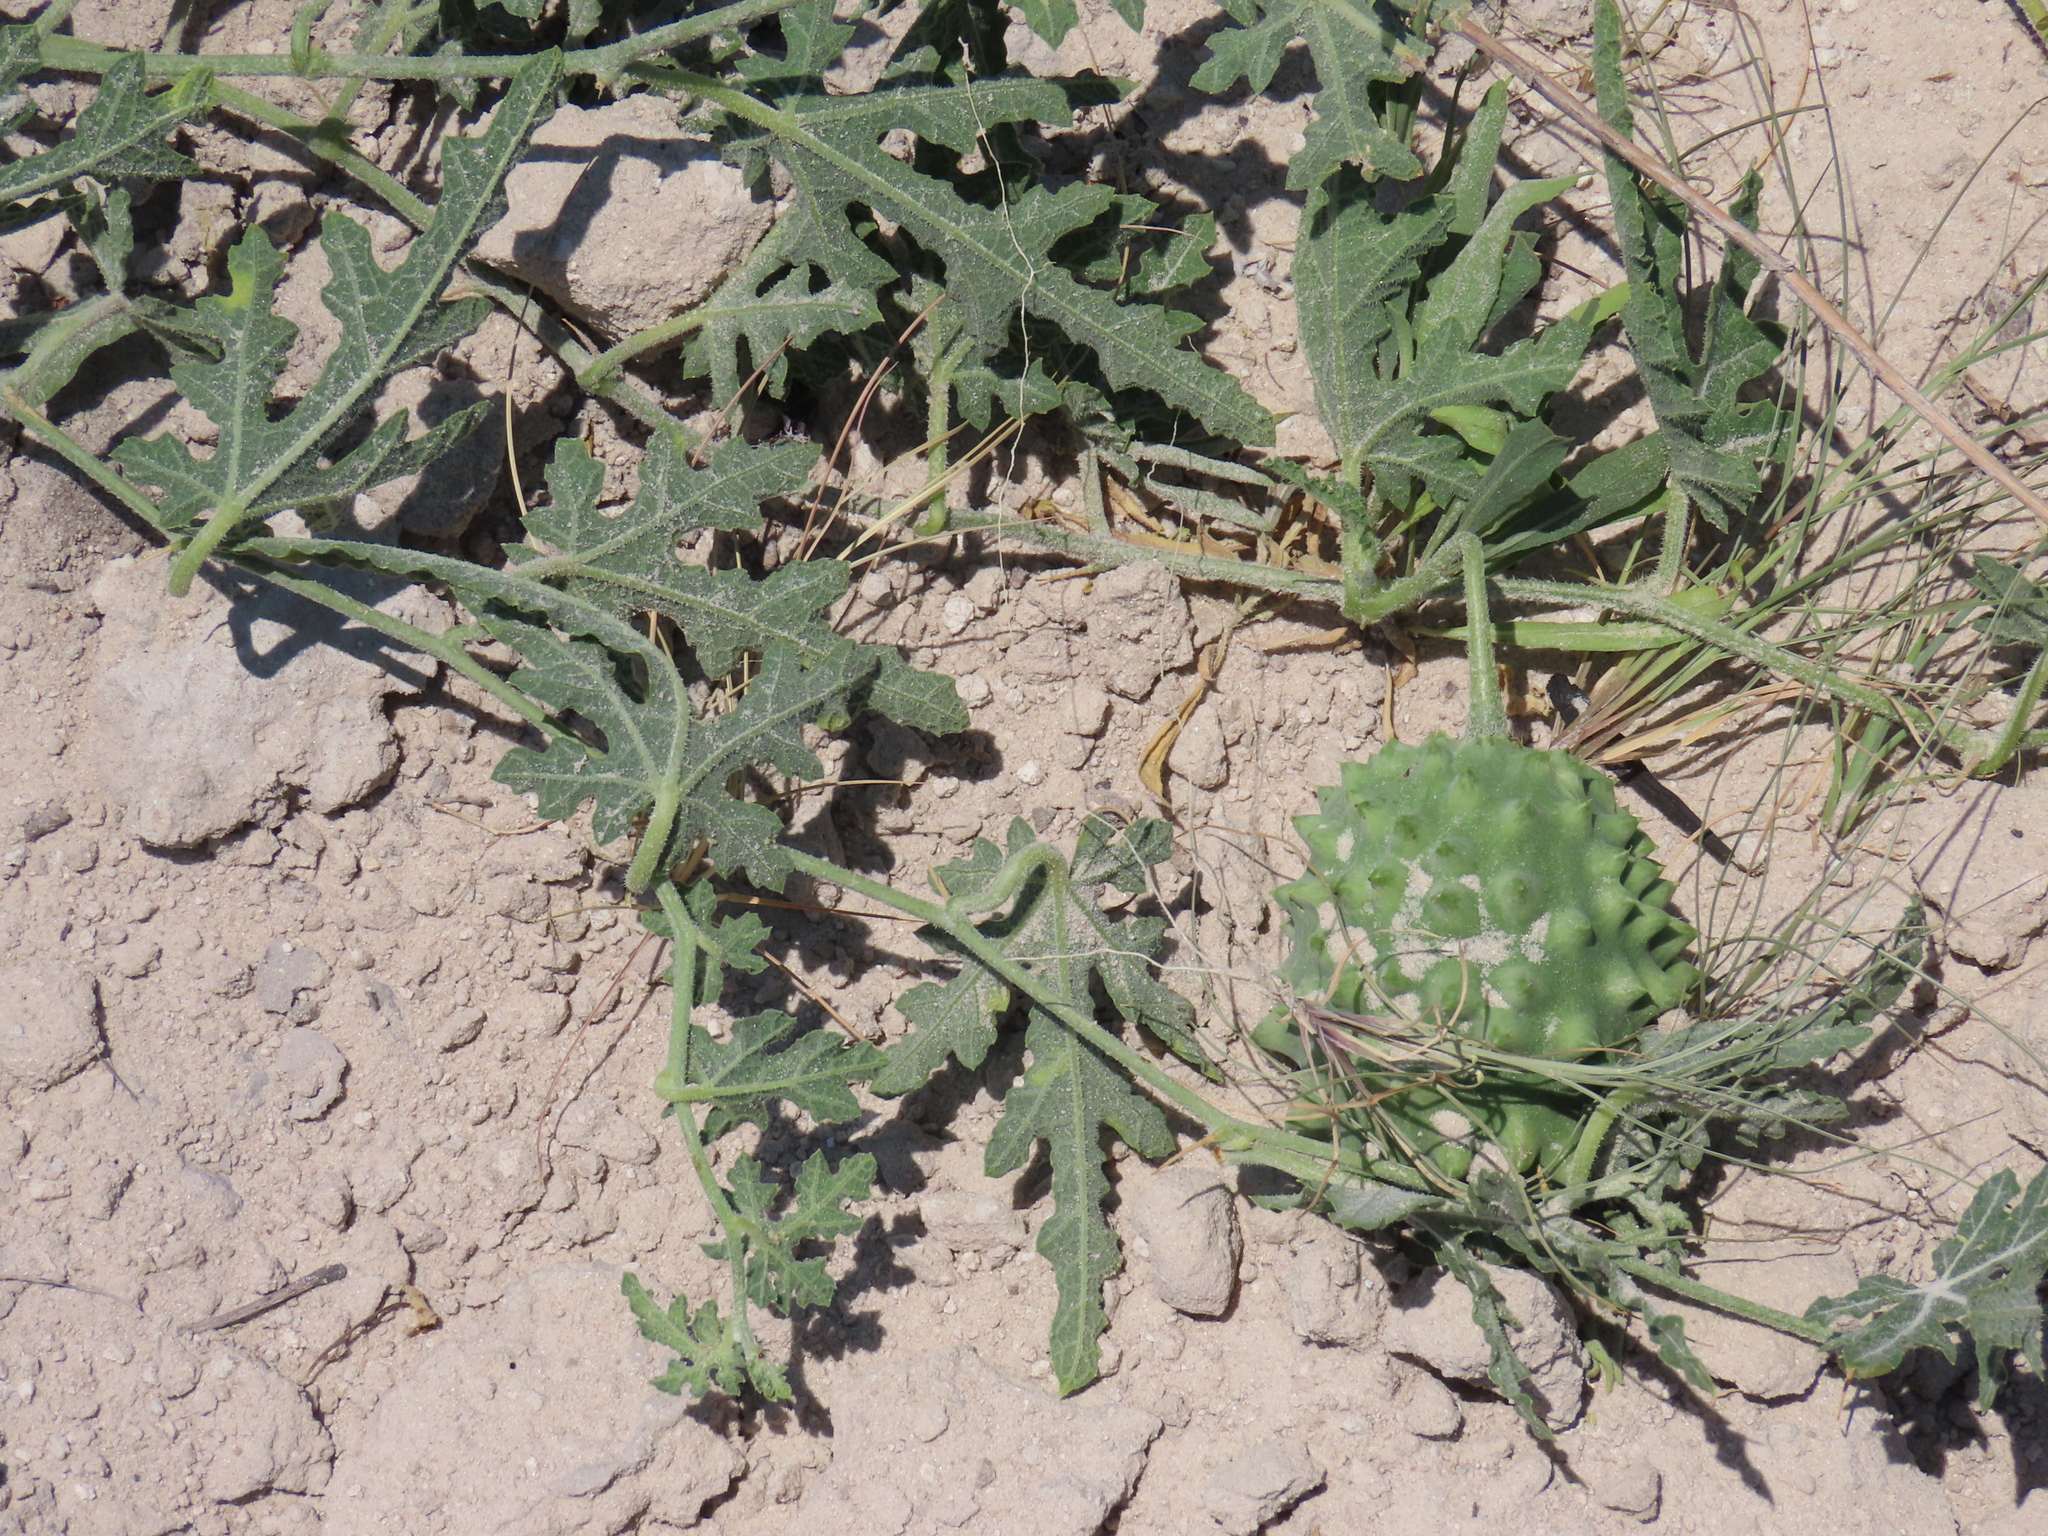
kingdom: Plantae
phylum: Tracheophyta
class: Magnoliopsida
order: Cucurbitales
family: Cucurbitaceae
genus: Citrullus
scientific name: Citrullus naudinianus
